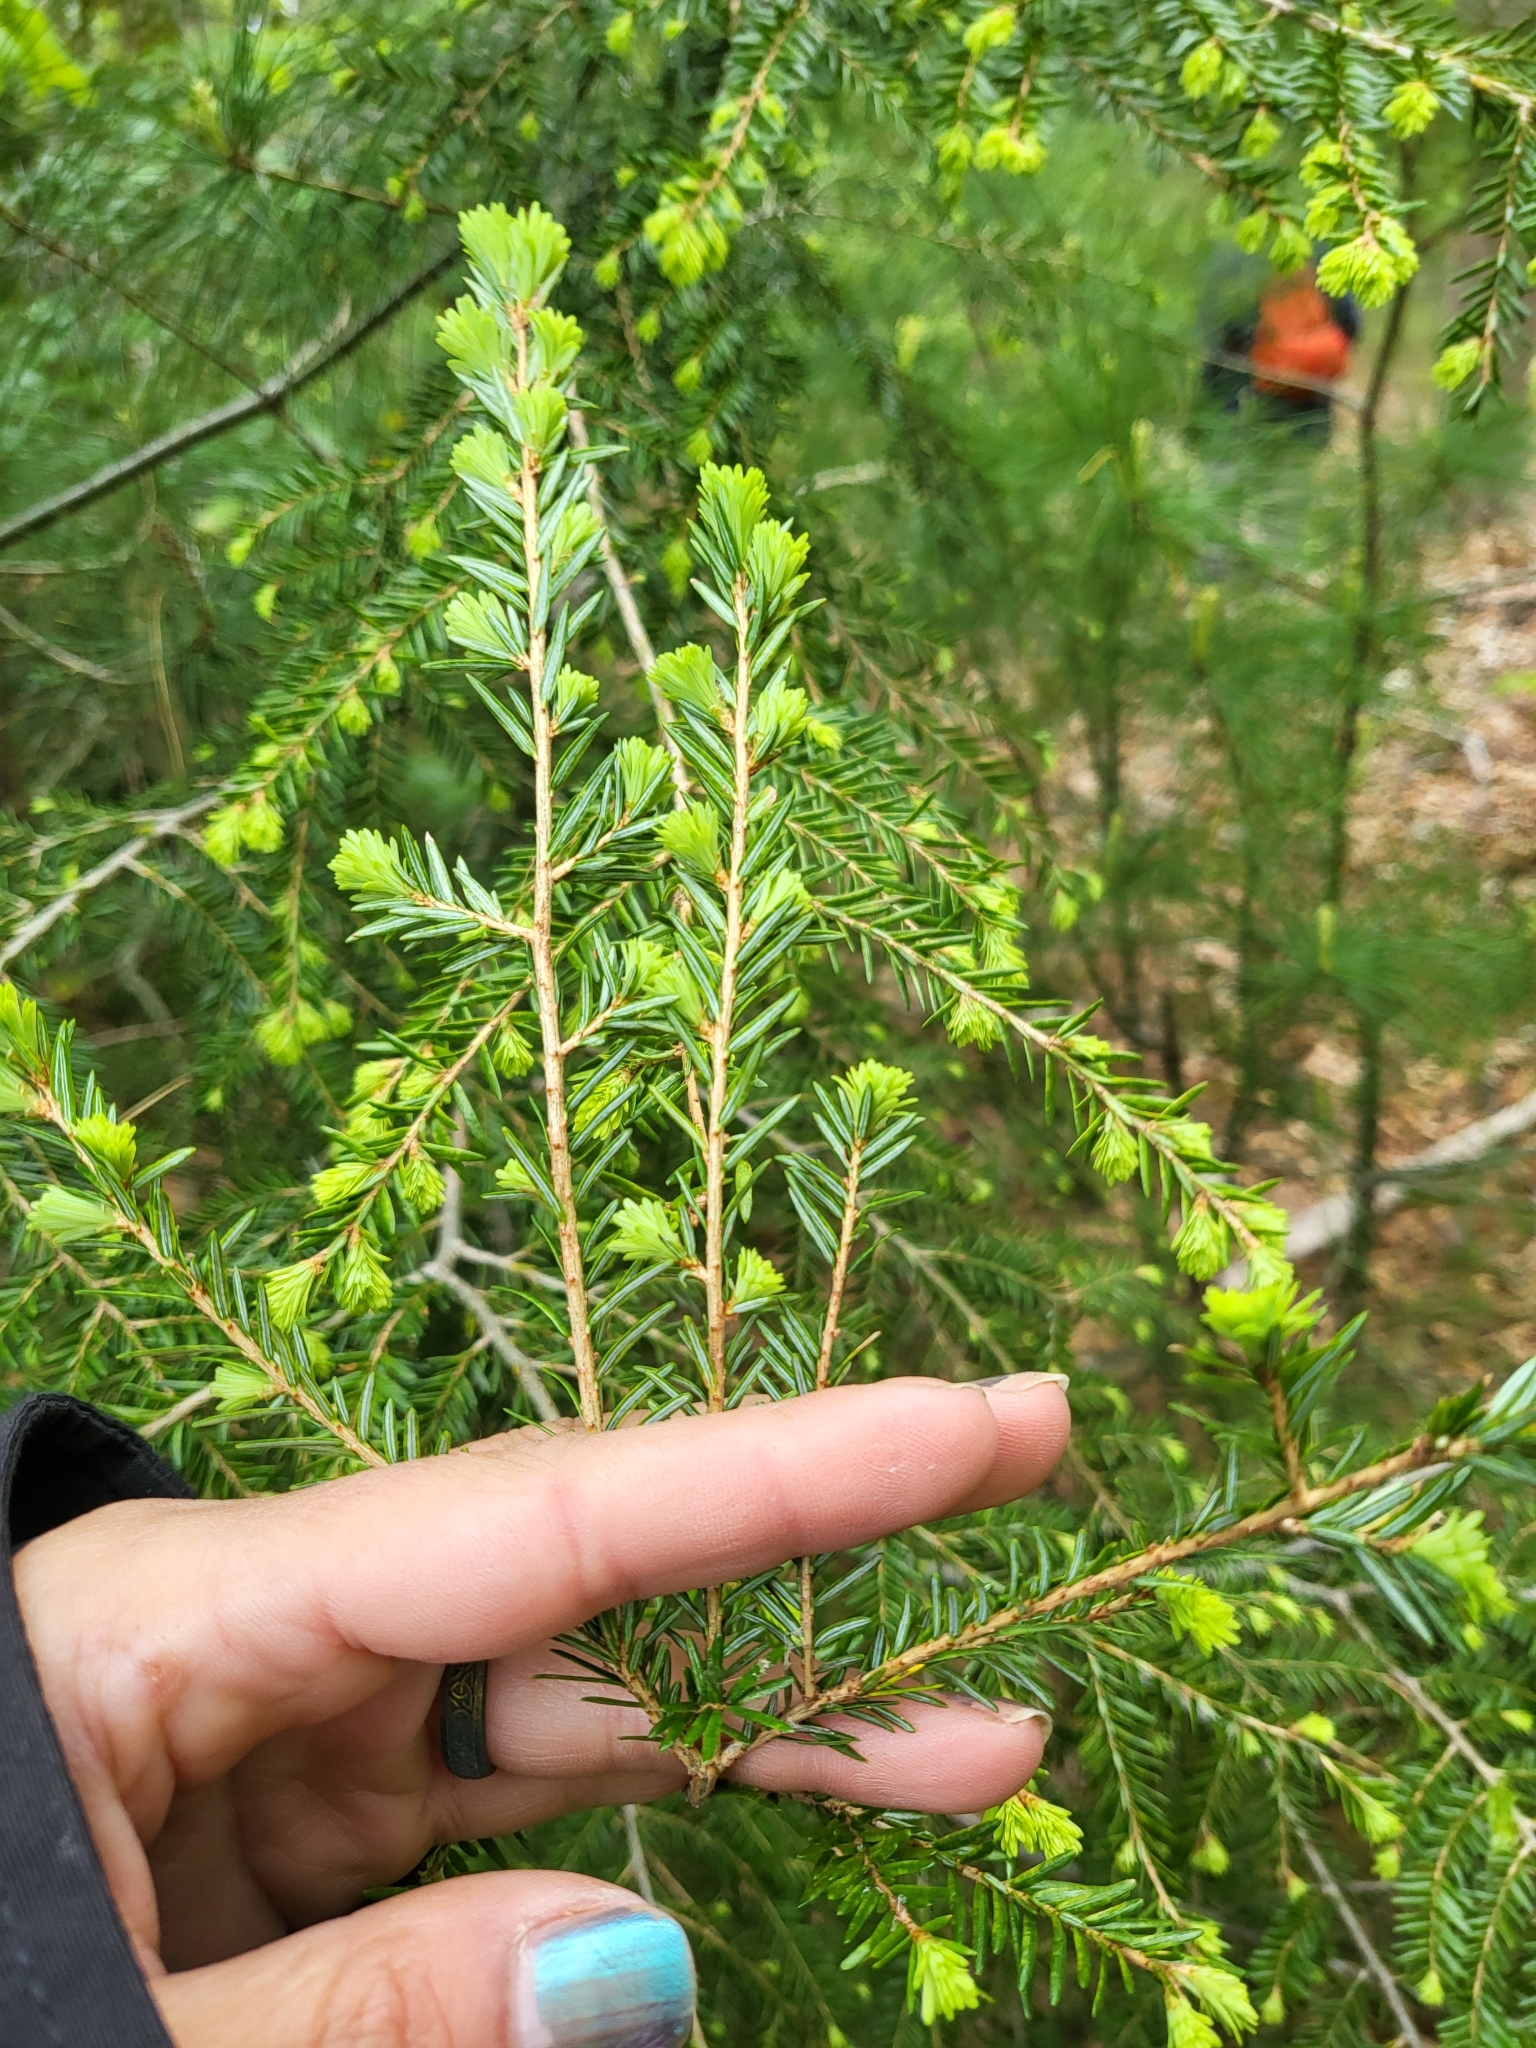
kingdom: Plantae
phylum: Tracheophyta
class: Pinopsida
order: Pinales
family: Pinaceae
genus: Tsuga
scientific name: Tsuga canadensis
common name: Eastern hemlock
